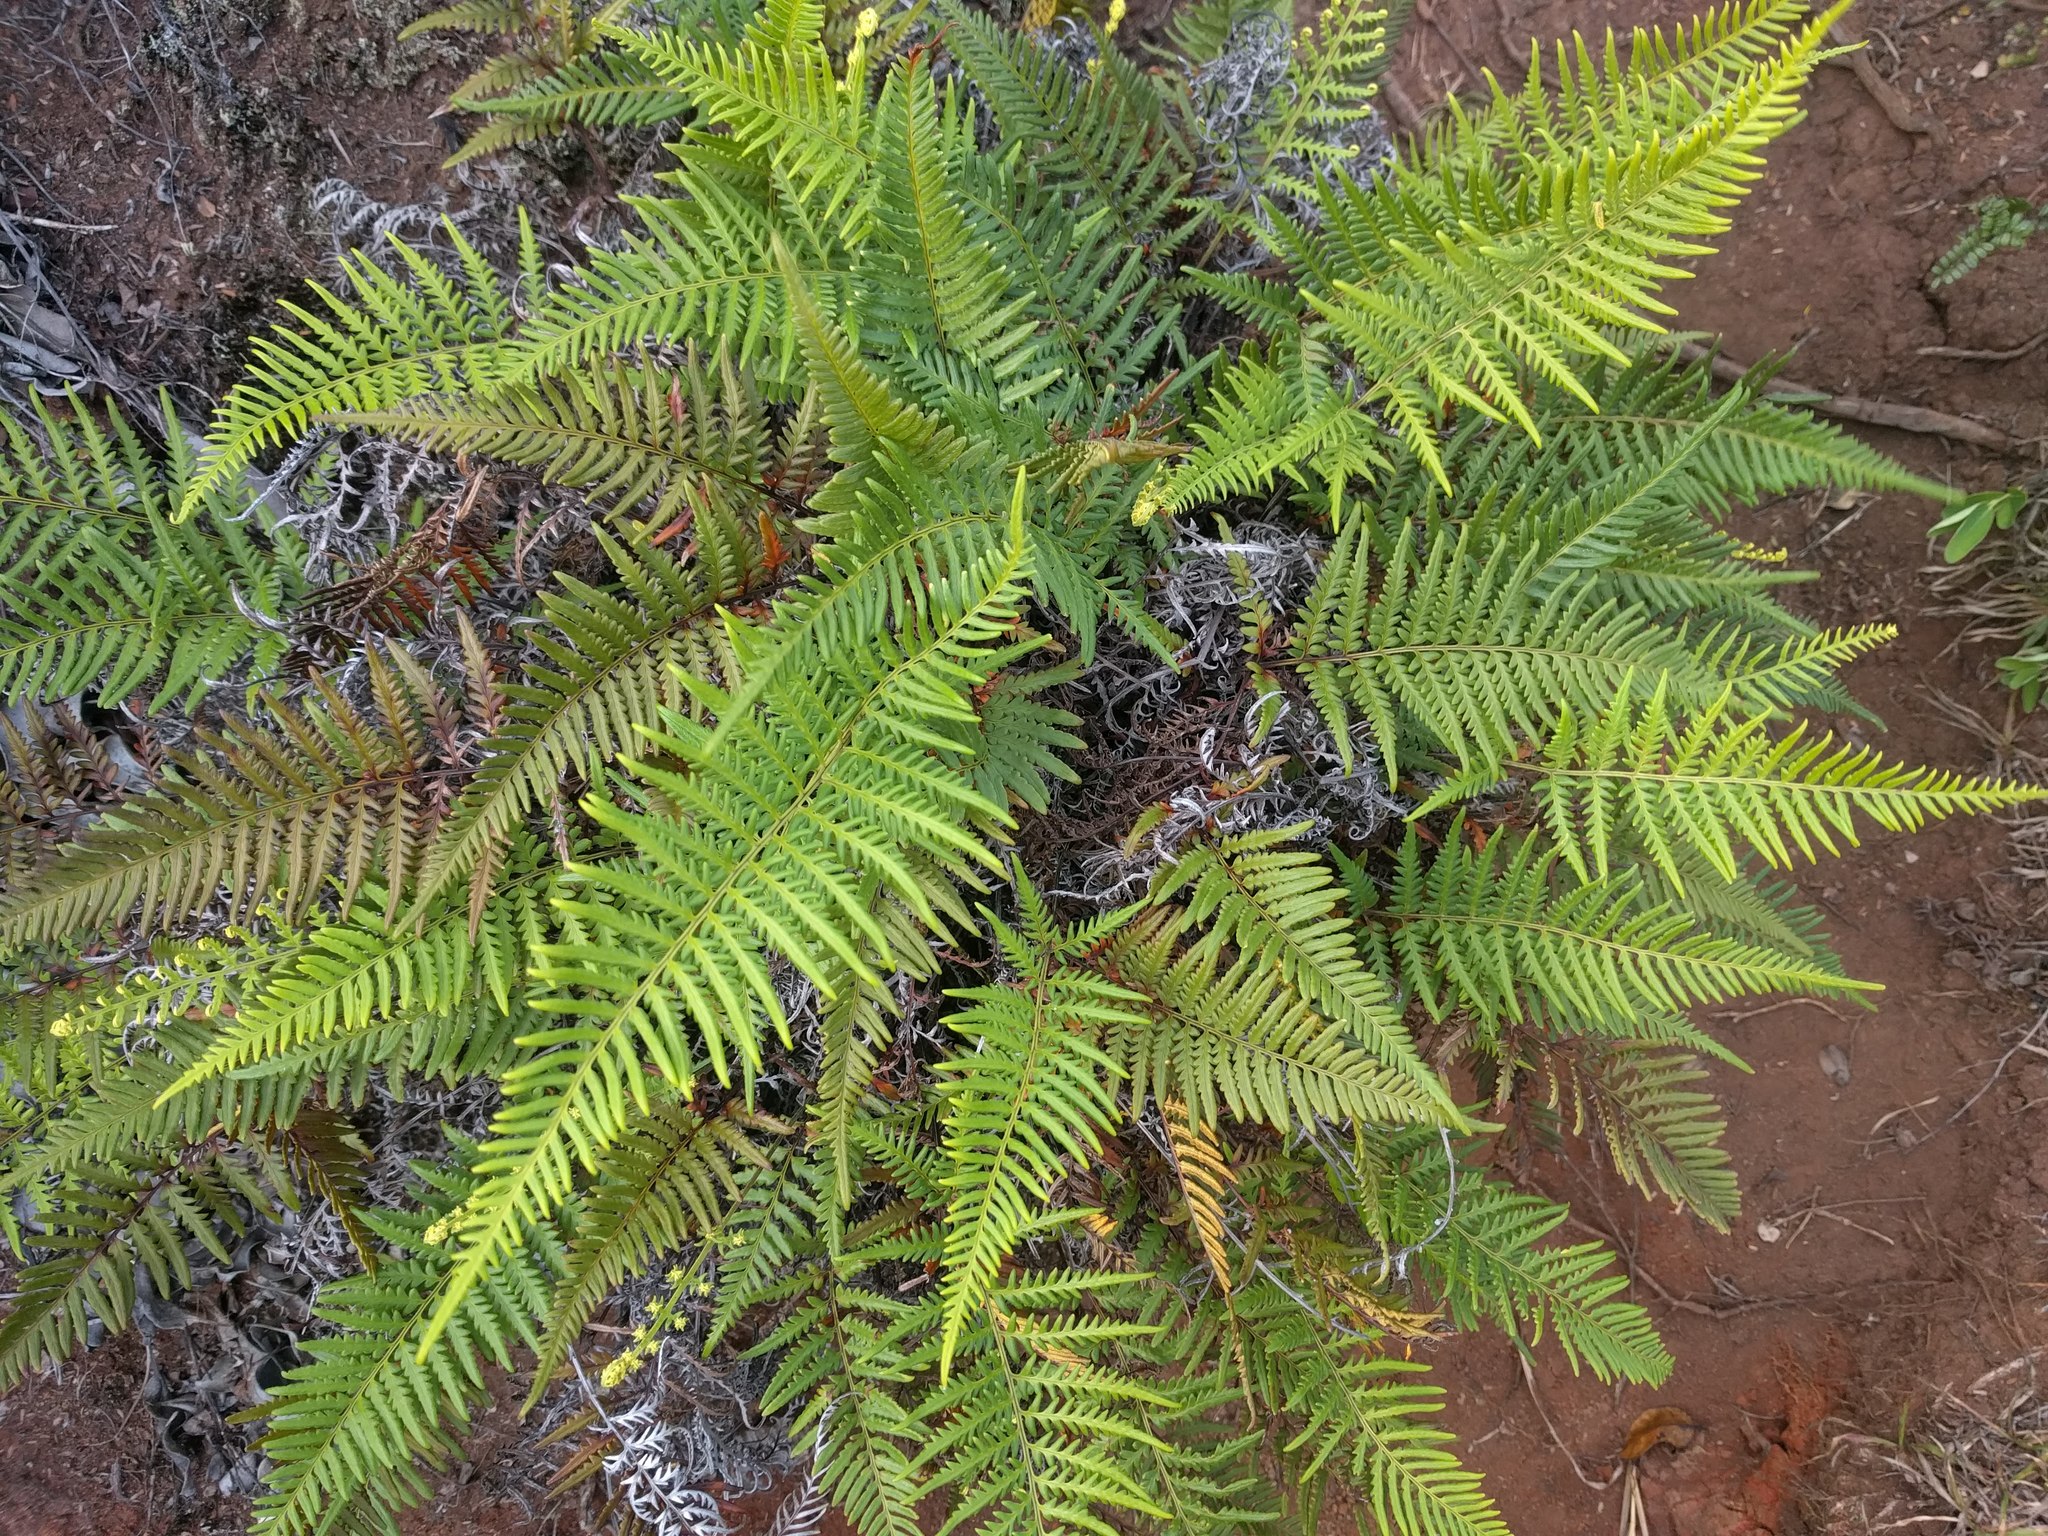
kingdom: Plantae
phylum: Tracheophyta
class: Polypodiopsida
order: Polypodiales
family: Pteridaceae
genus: Pityrogramma
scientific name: Pityrogramma austroamericana
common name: Leatherleaf goldback fern
